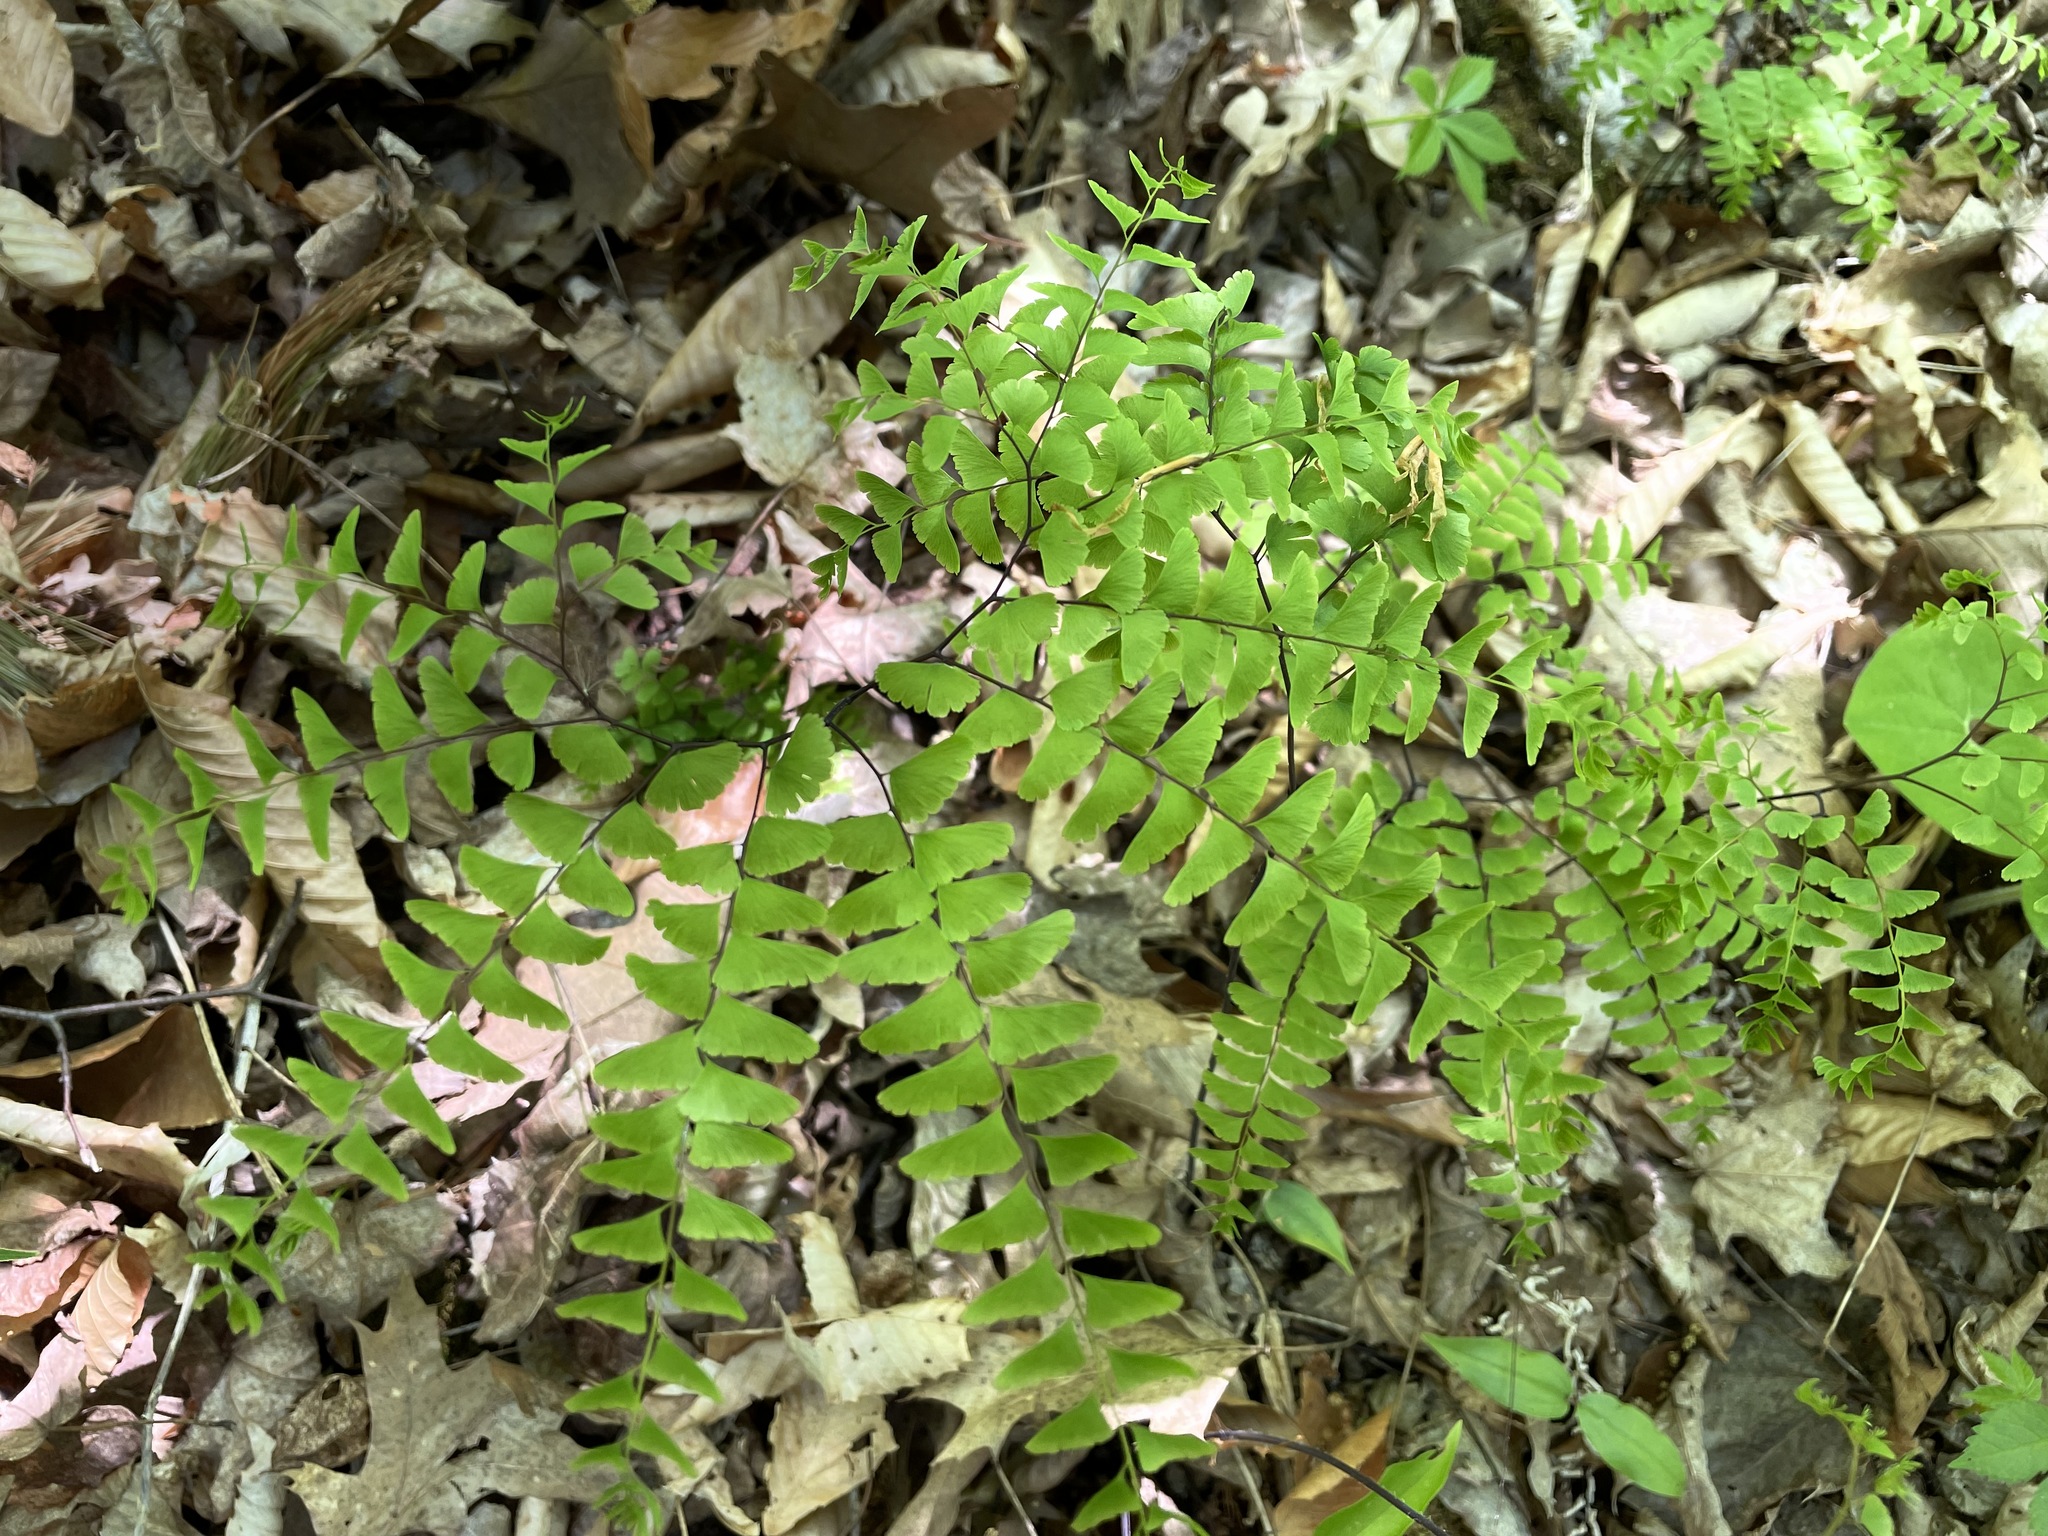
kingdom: Plantae
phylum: Tracheophyta
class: Polypodiopsida
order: Polypodiales
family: Pteridaceae
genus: Adiantum
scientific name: Adiantum pedatum
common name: Five-finger fern
